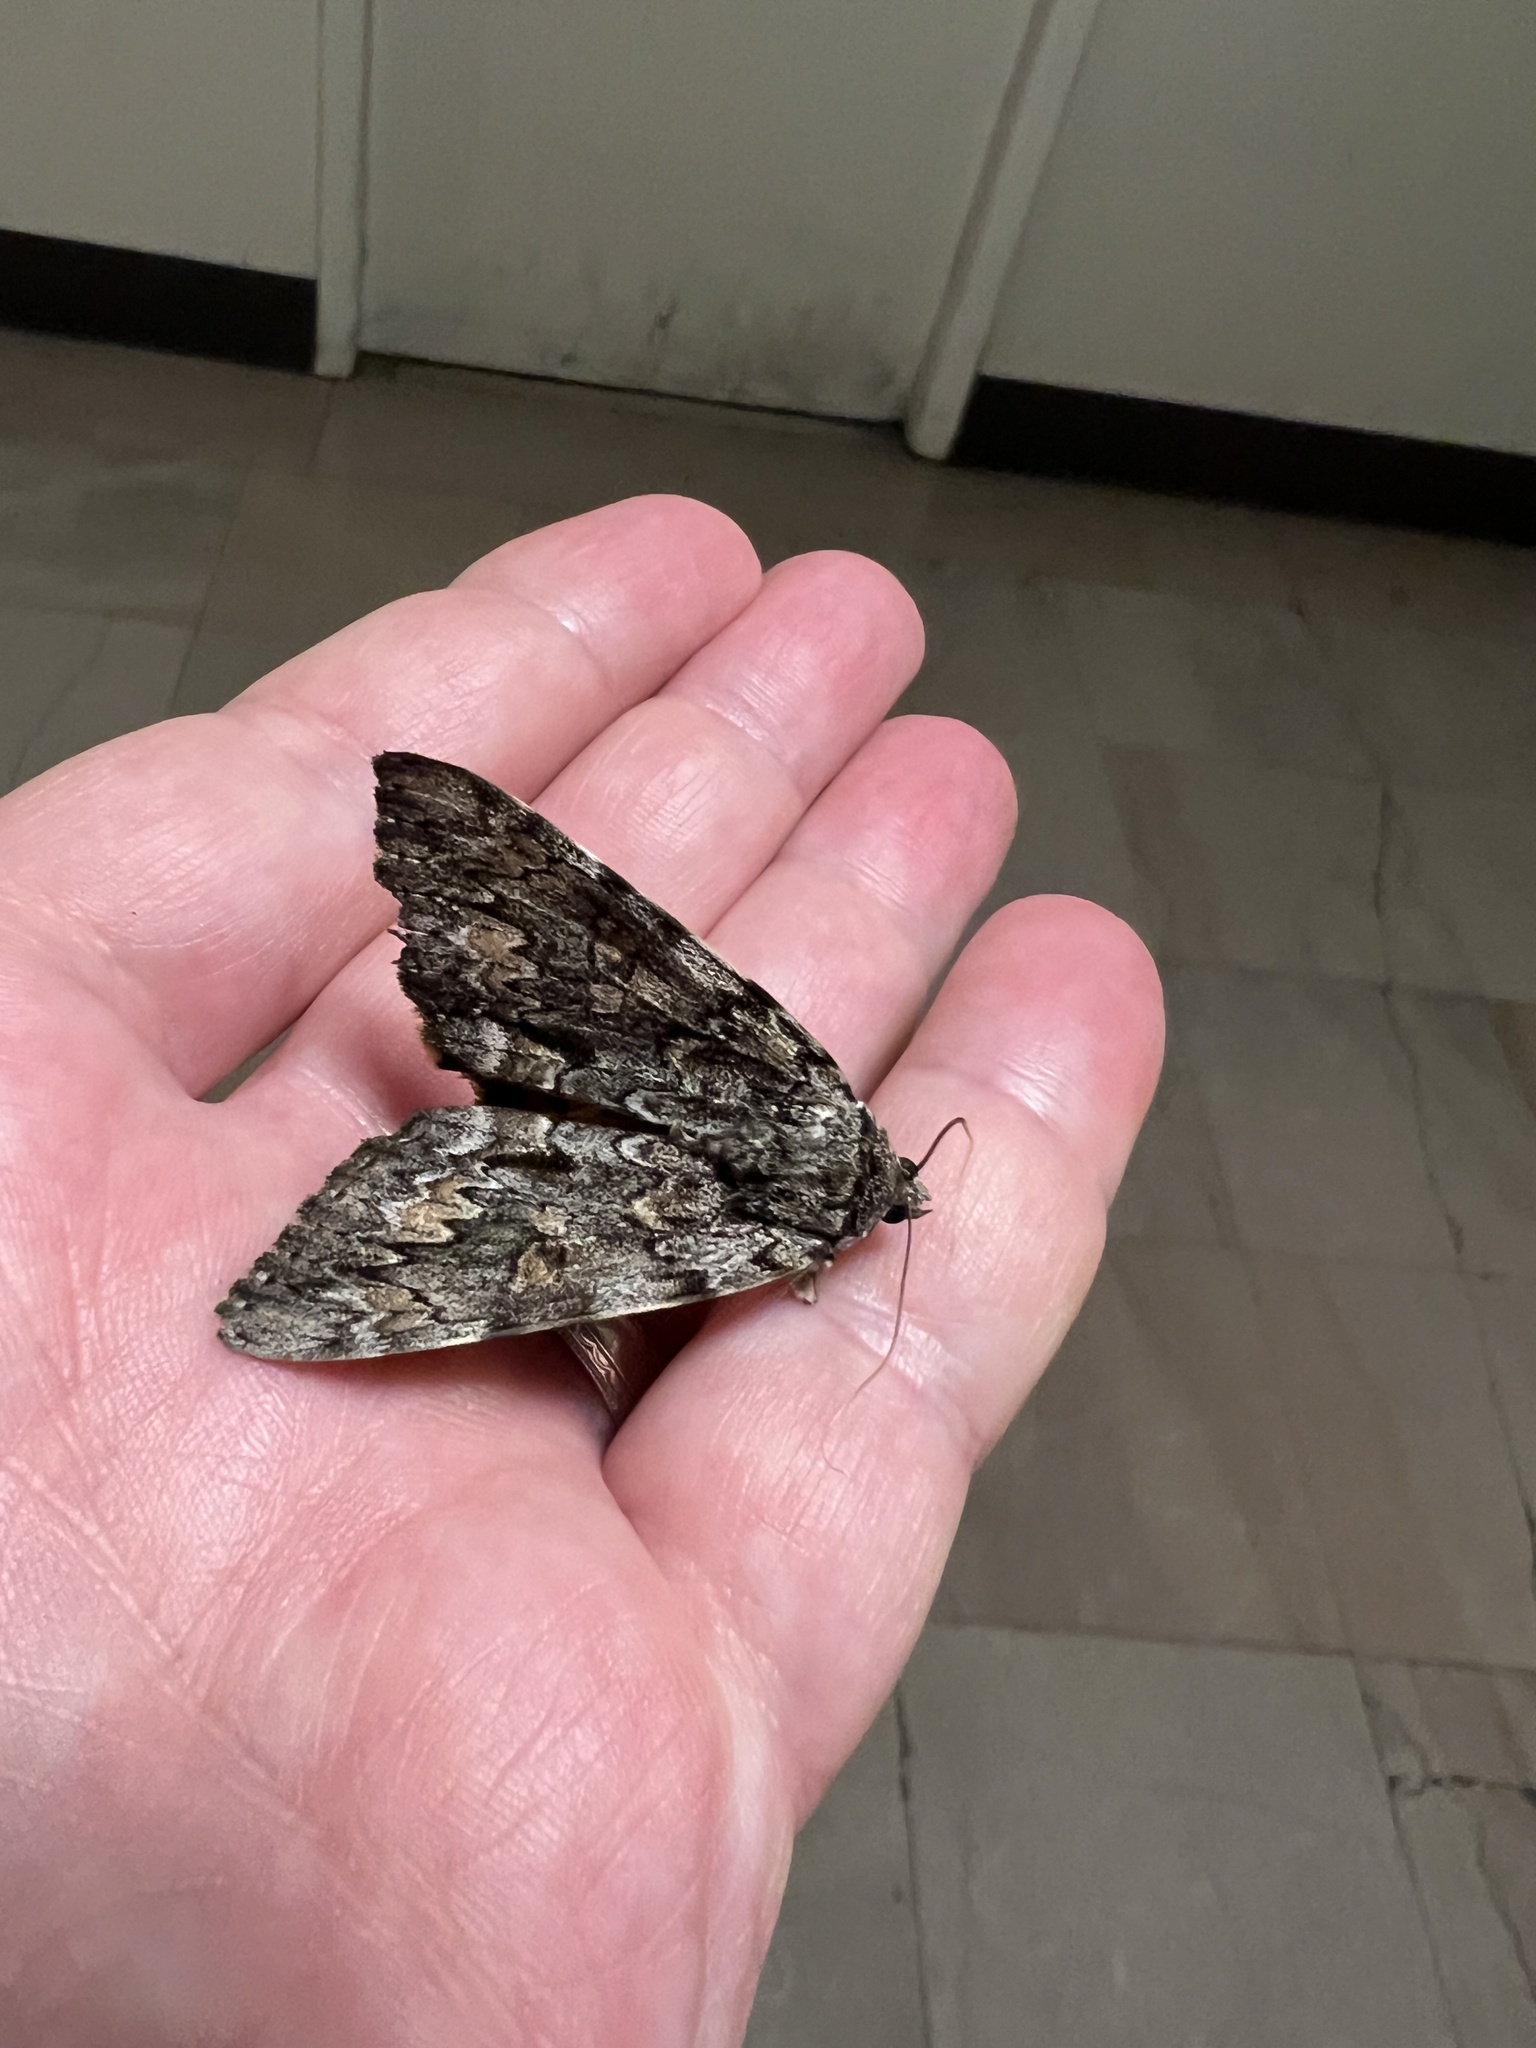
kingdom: Animalia
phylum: Arthropoda
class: Insecta
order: Lepidoptera
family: Erebidae
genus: Catocala
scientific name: Catocala palaeogama
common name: Oldwife underwing
